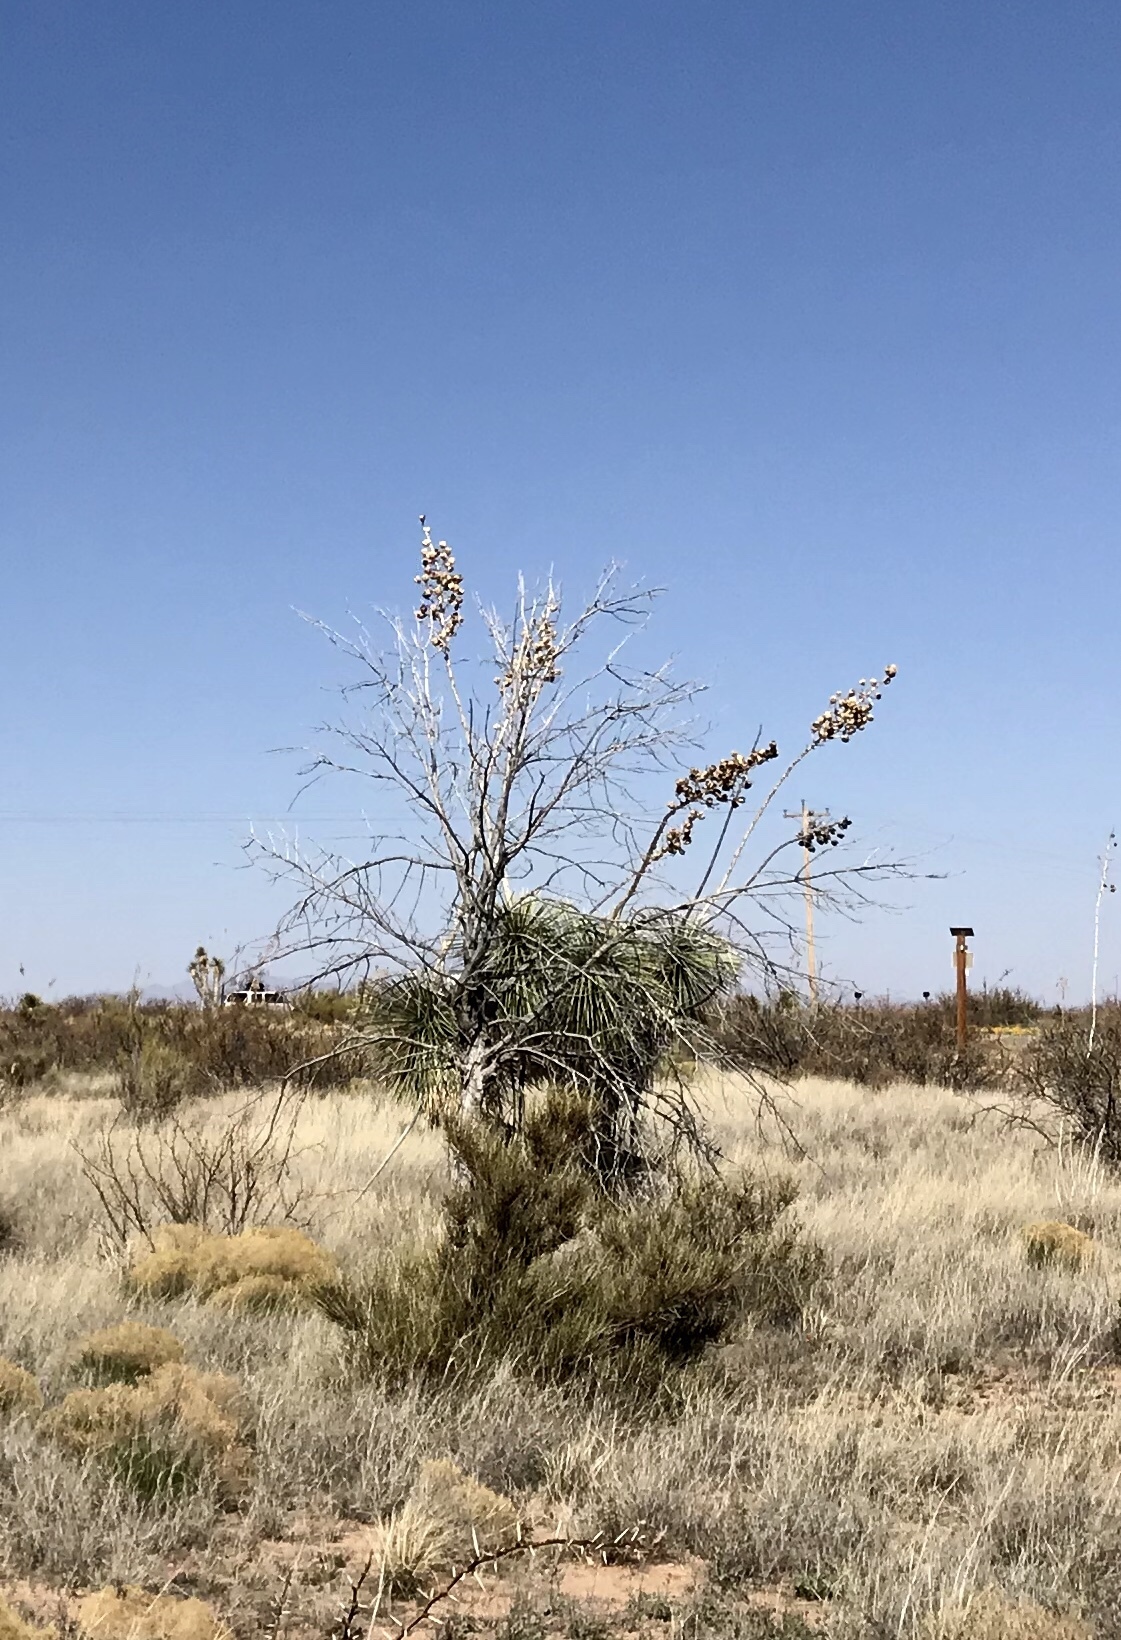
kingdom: Plantae
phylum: Tracheophyta
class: Liliopsida
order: Asparagales
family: Asparagaceae
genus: Yucca
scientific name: Yucca elata
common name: Palmella
